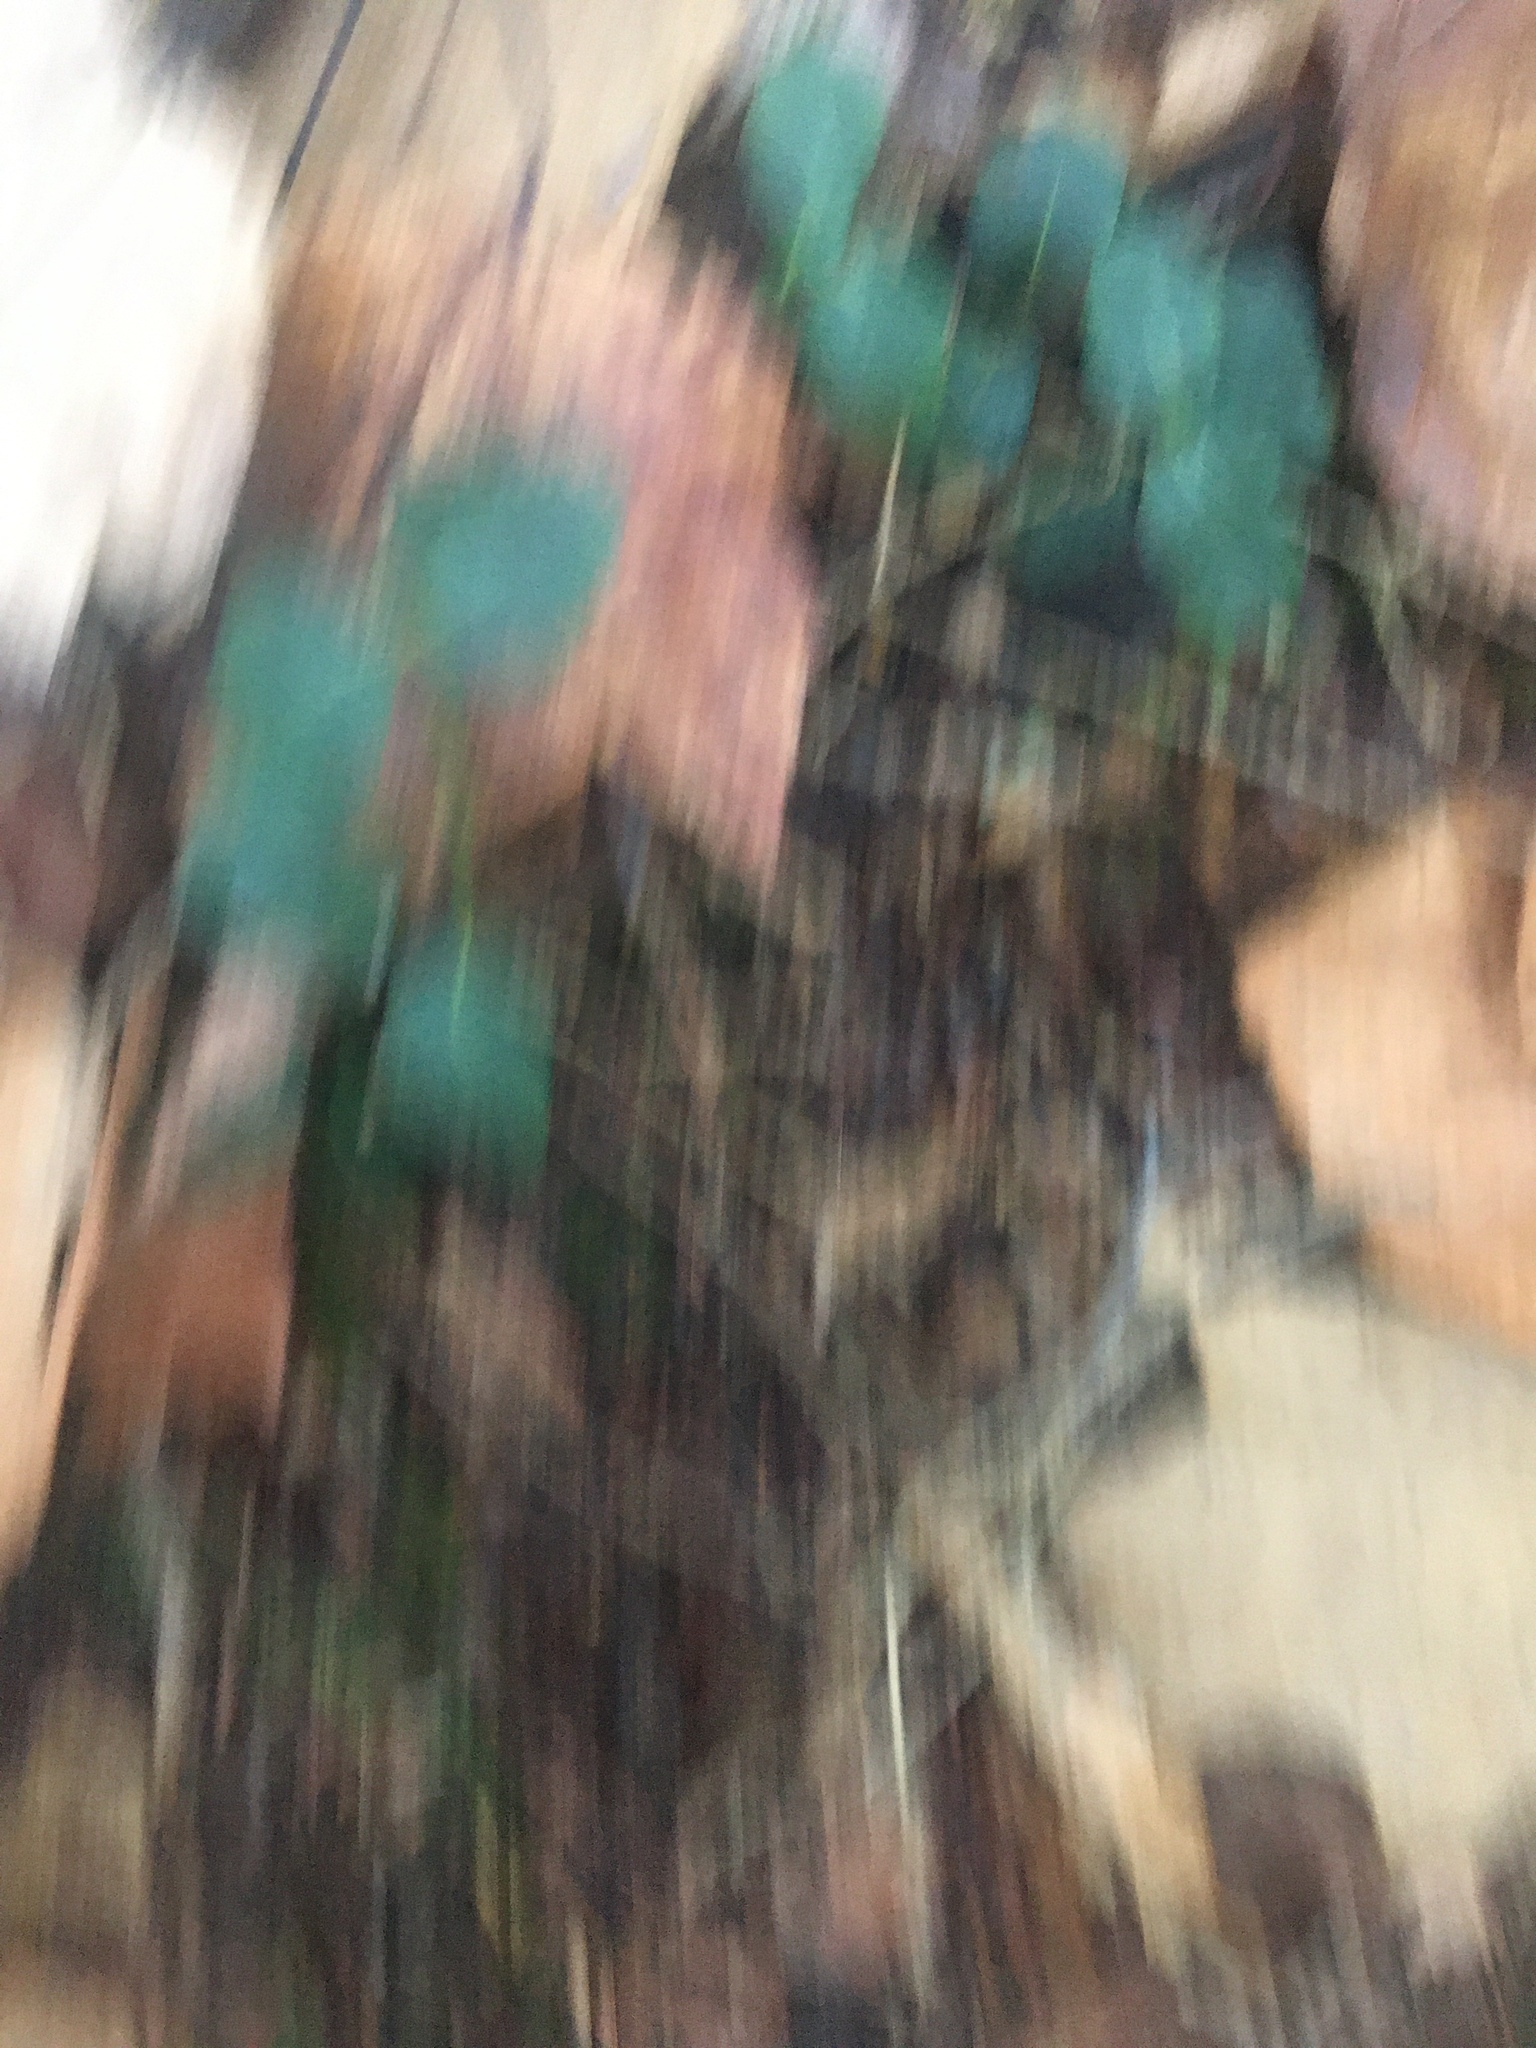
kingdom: Plantae
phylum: Tracheophyta
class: Magnoliopsida
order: Gentianales
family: Rubiaceae
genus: Mitchella
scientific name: Mitchella repens
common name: Partridge-berry
